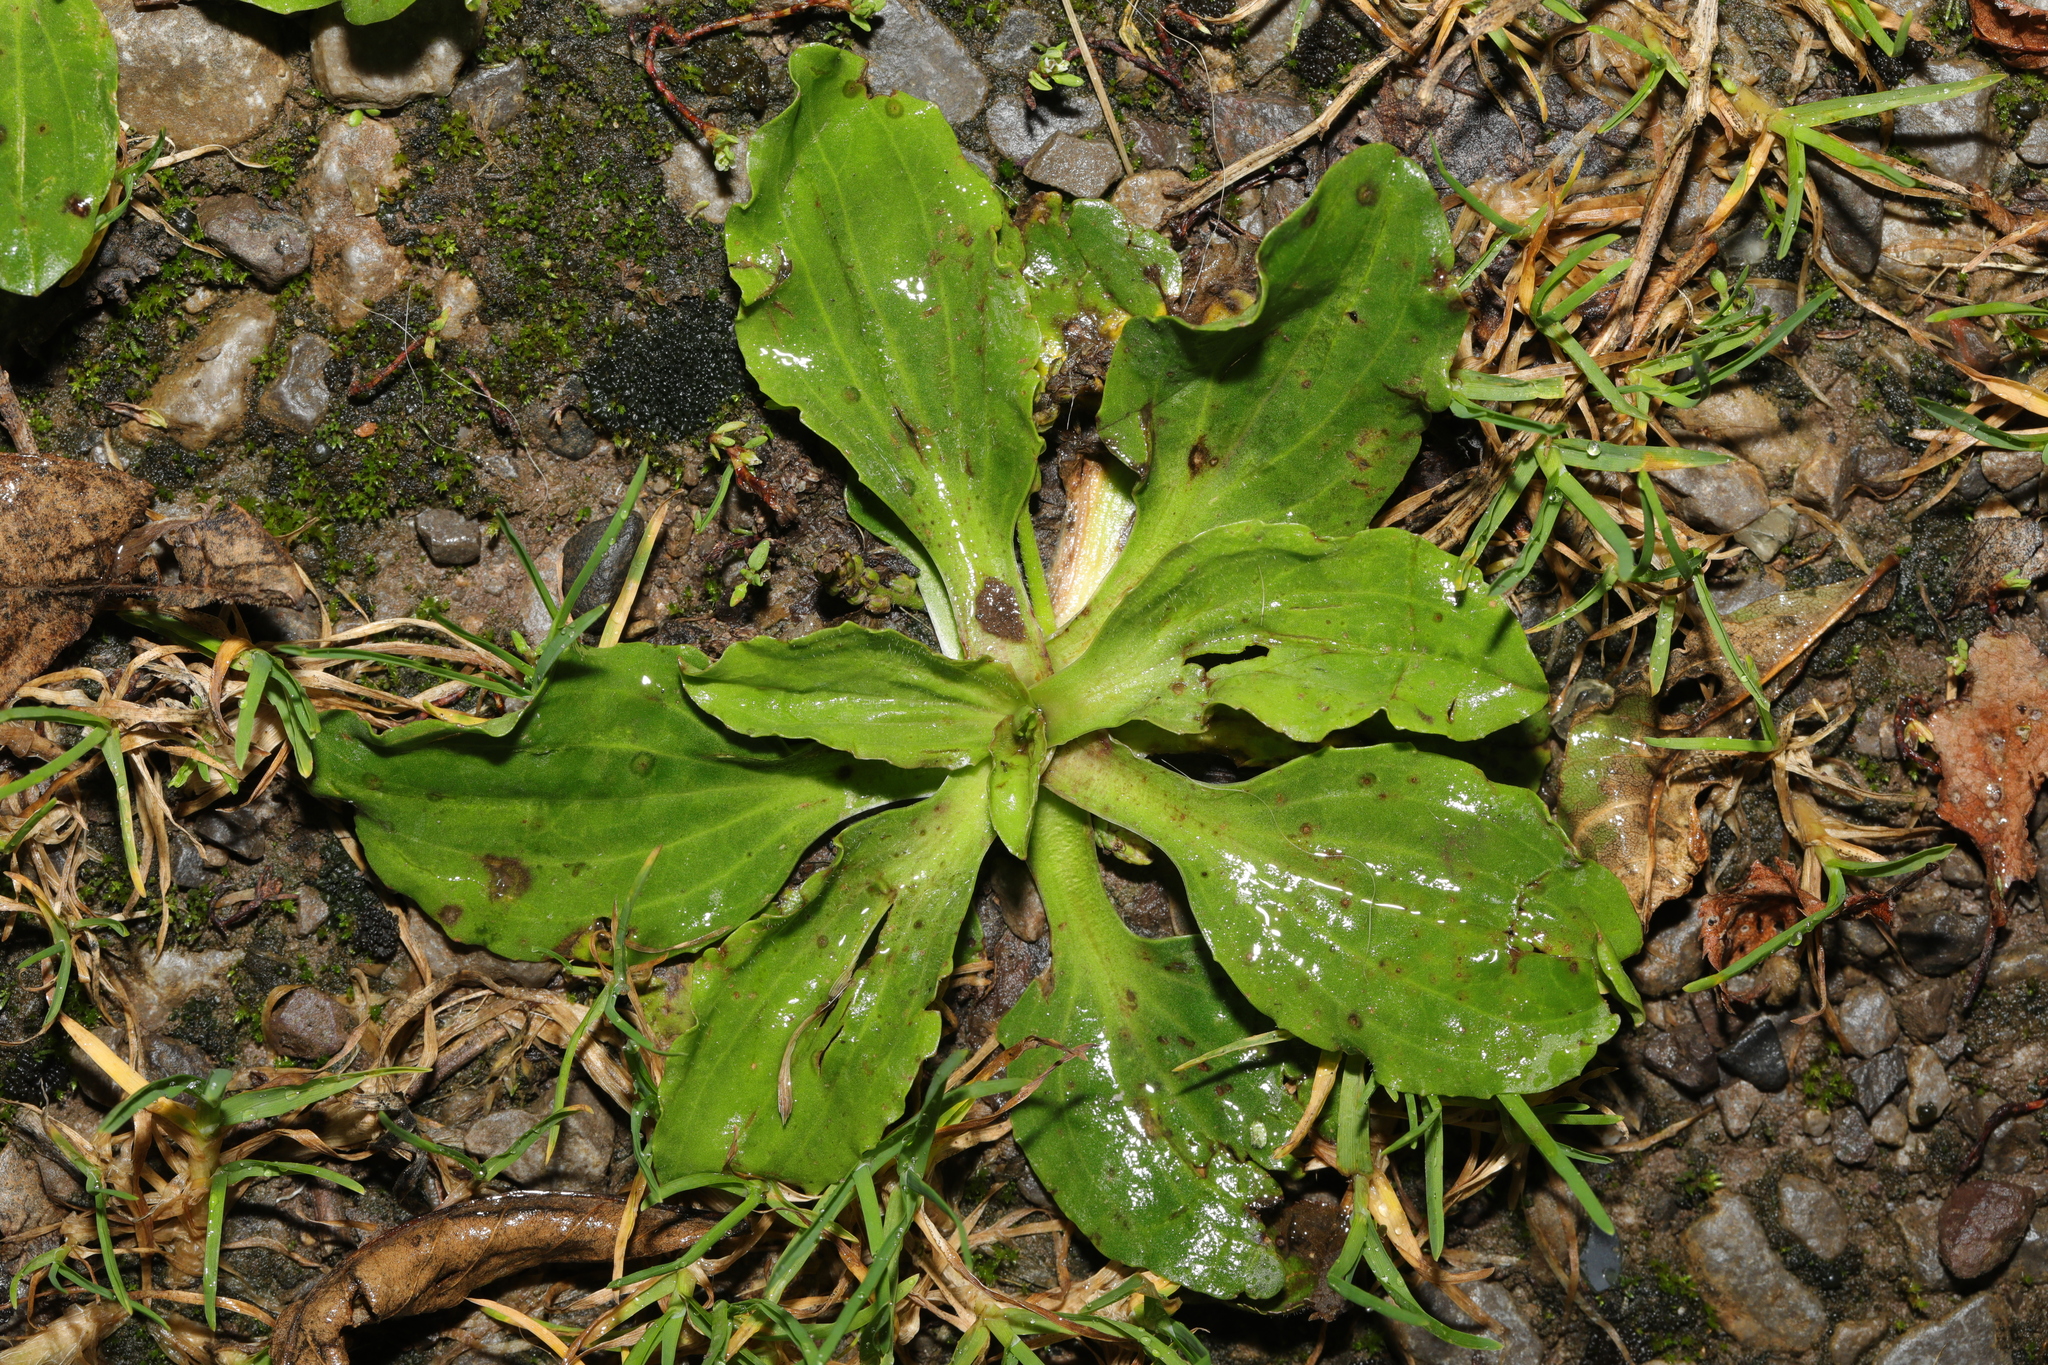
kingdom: Plantae
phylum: Tracheophyta
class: Magnoliopsida
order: Lamiales
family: Plantaginaceae
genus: Plantago
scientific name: Plantago major
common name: Common plantain
